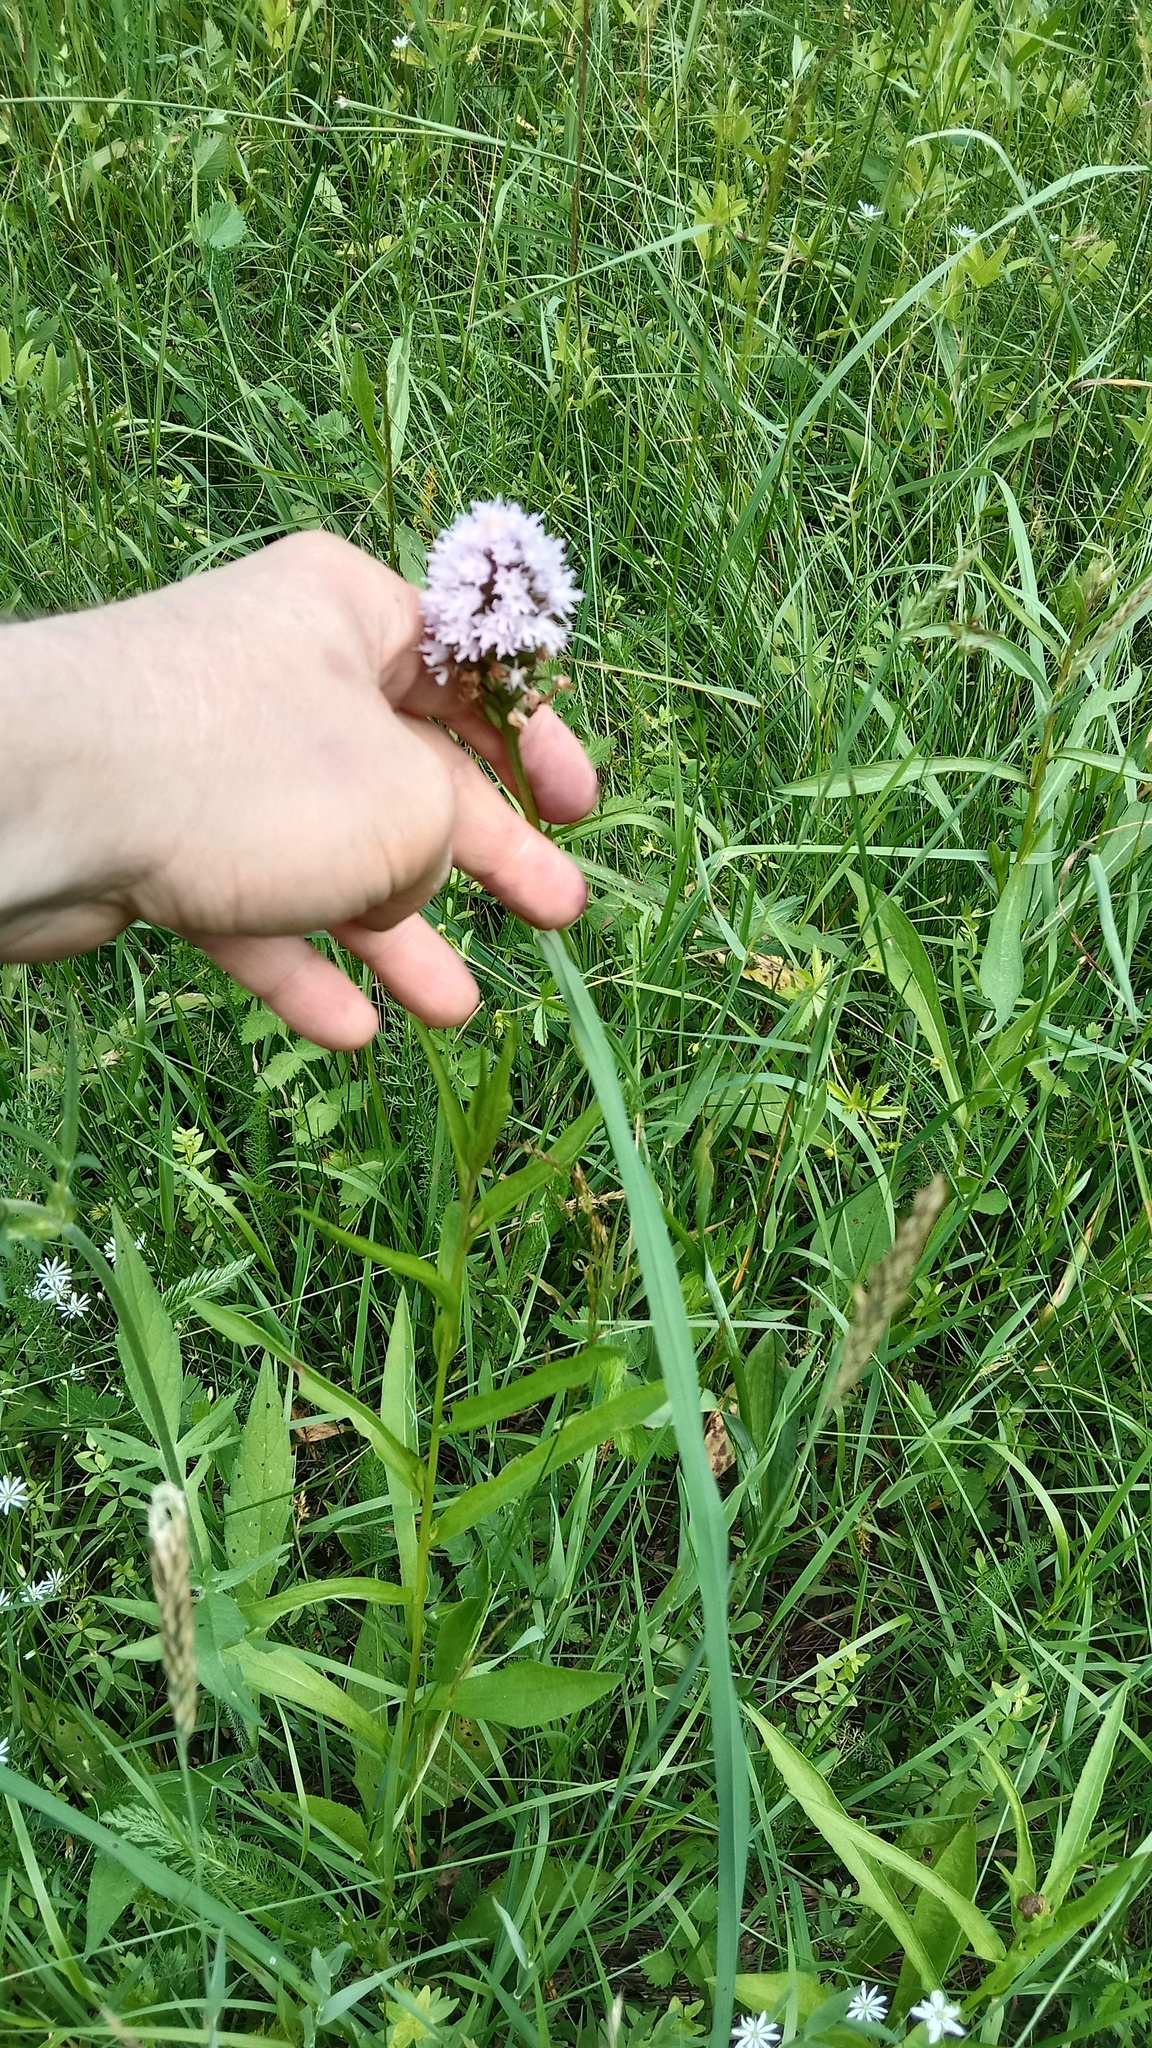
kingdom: Plantae
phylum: Tracheophyta
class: Liliopsida
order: Asparagales
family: Orchidaceae
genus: Traunsteinera
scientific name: Traunsteinera globosa
